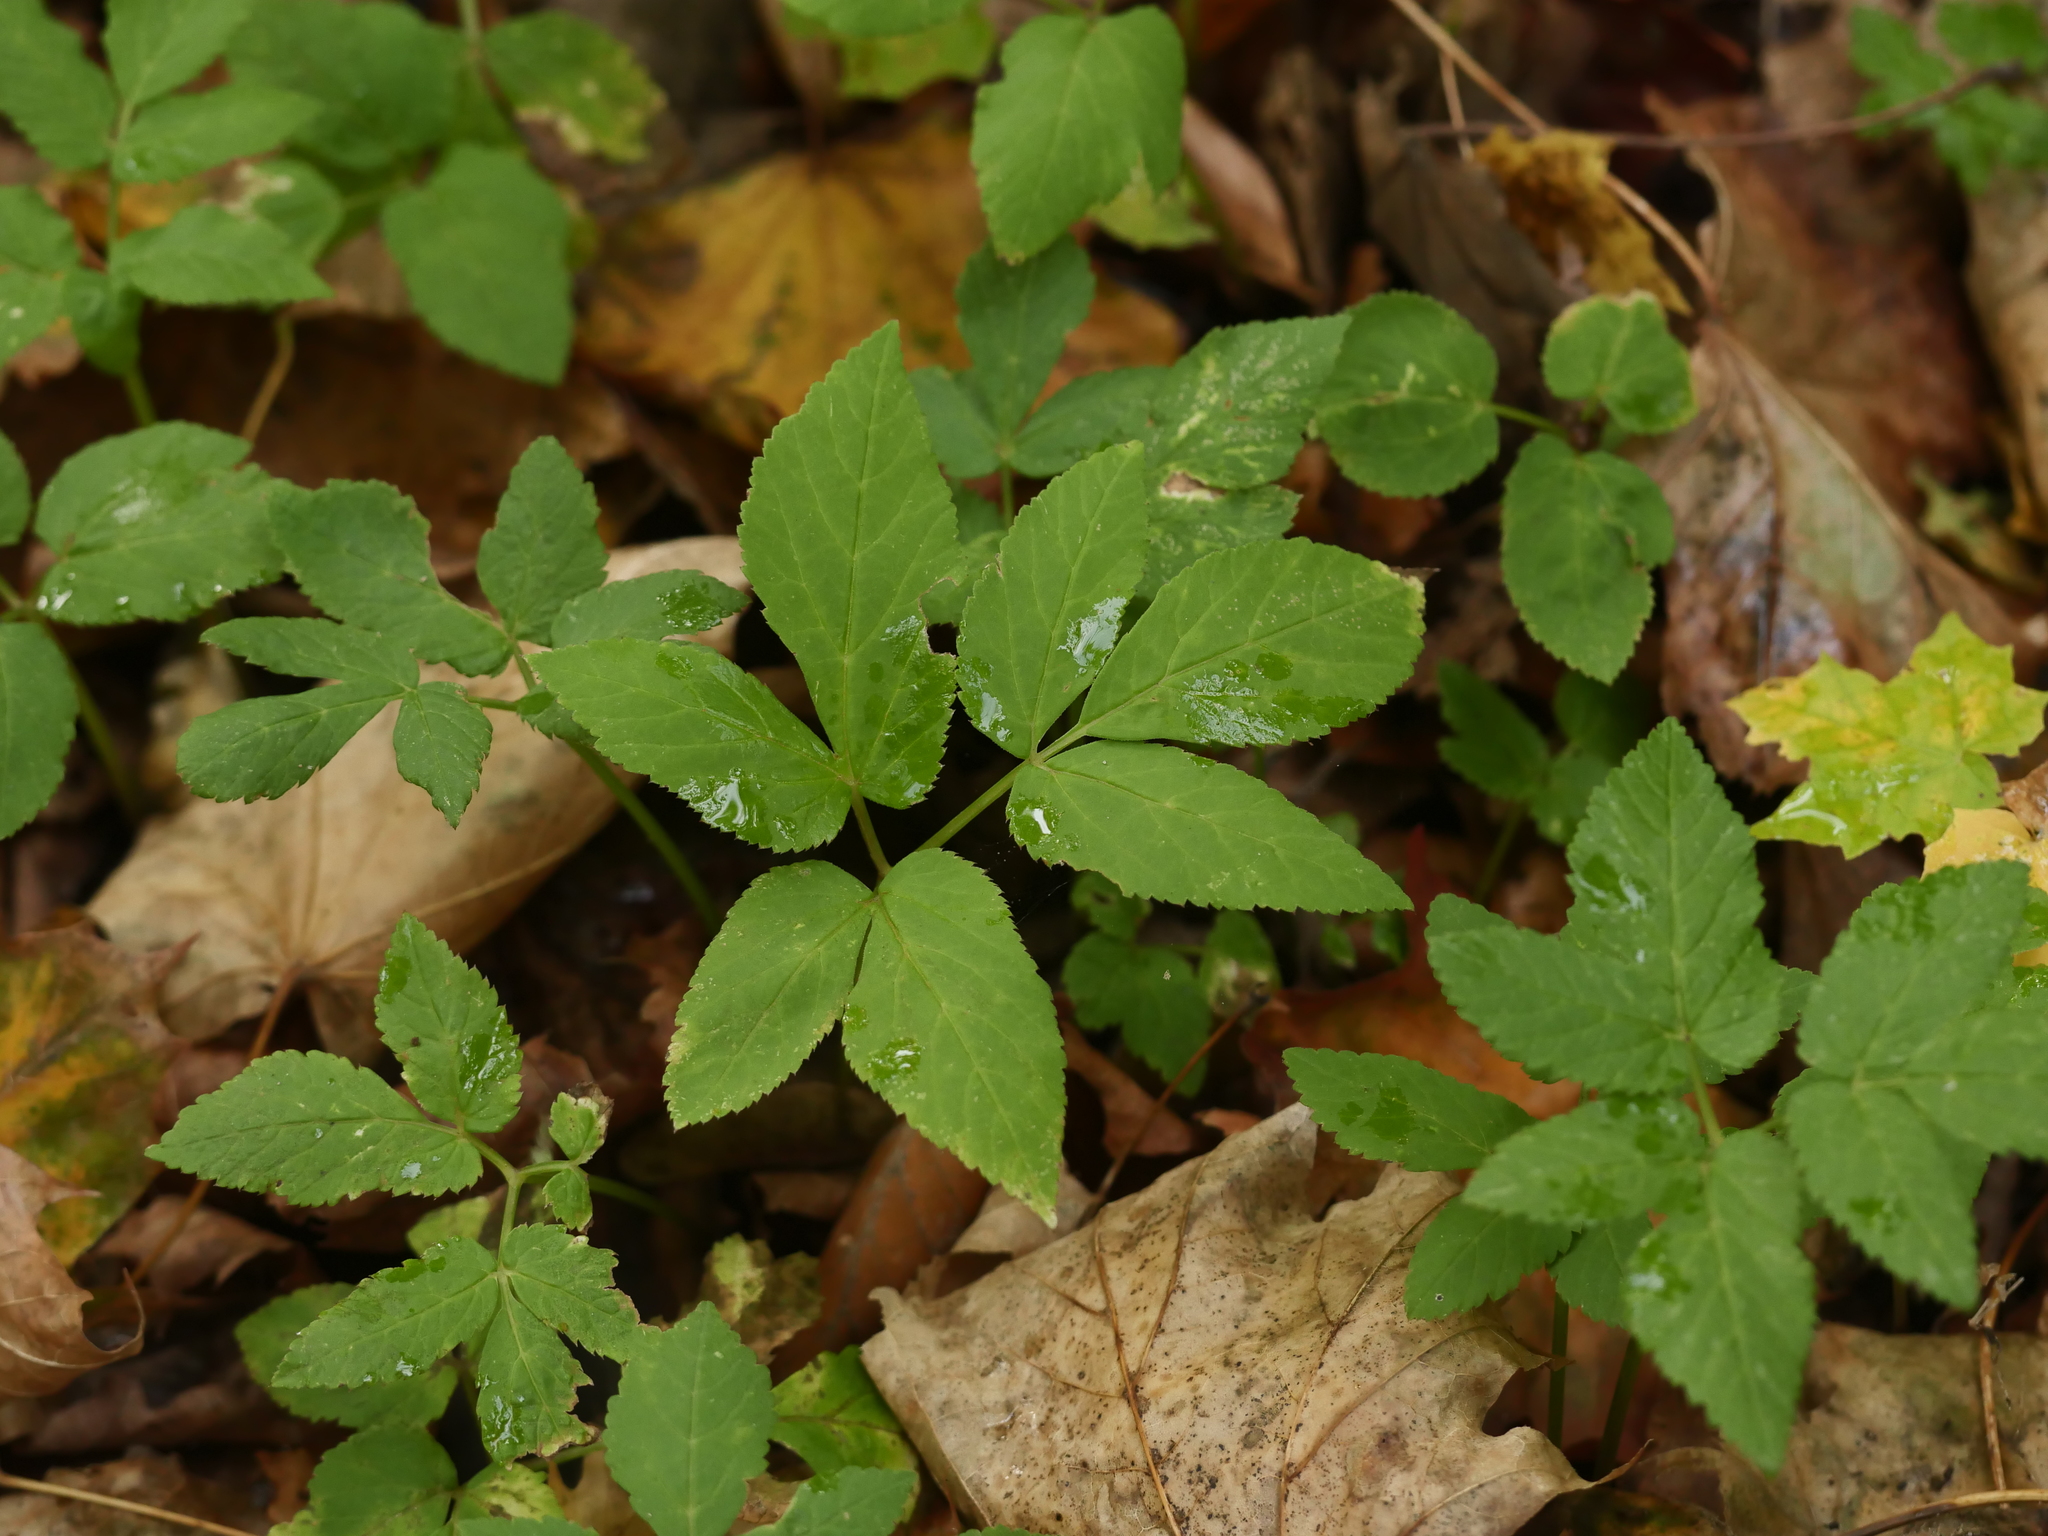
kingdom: Plantae
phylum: Tracheophyta
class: Magnoliopsida
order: Apiales
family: Apiaceae
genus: Aegopodium
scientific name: Aegopodium podagraria
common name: Ground-elder
